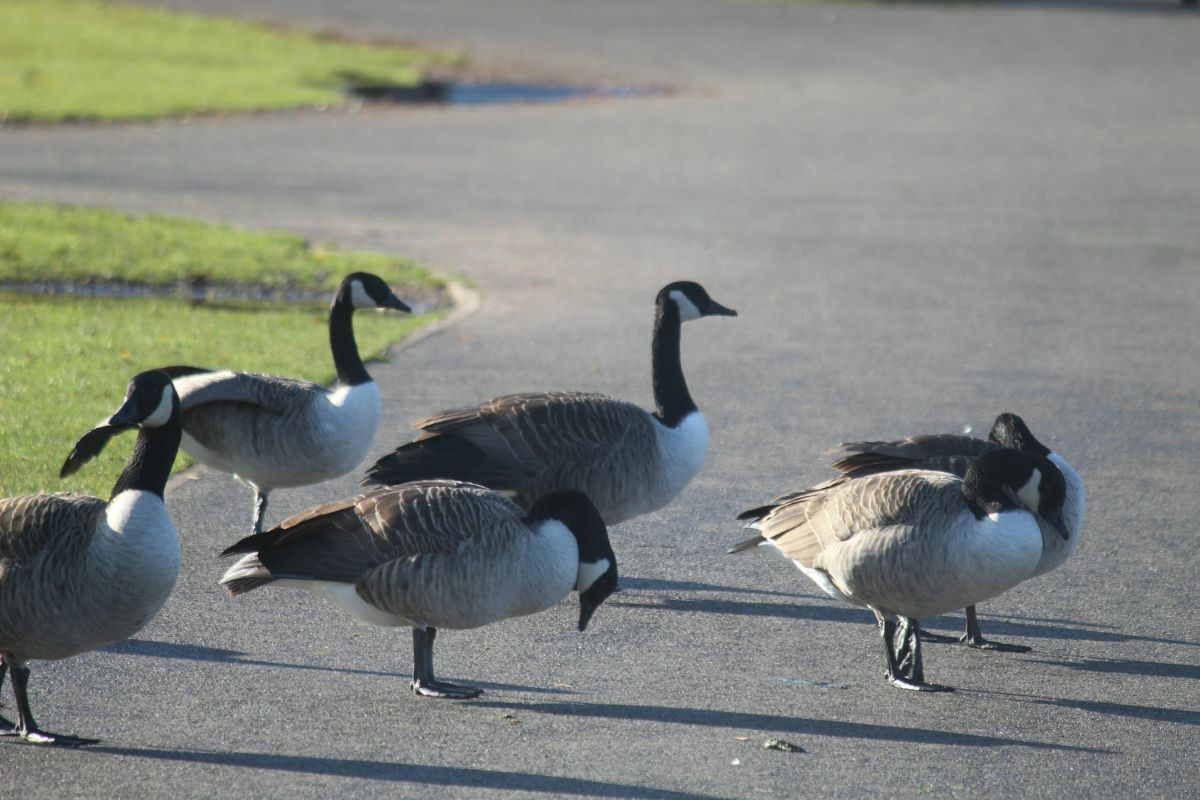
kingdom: Animalia
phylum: Chordata
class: Aves
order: Anseriformes
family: Anatidae
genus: Branta
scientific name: Branta canadensis
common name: Canada goose
